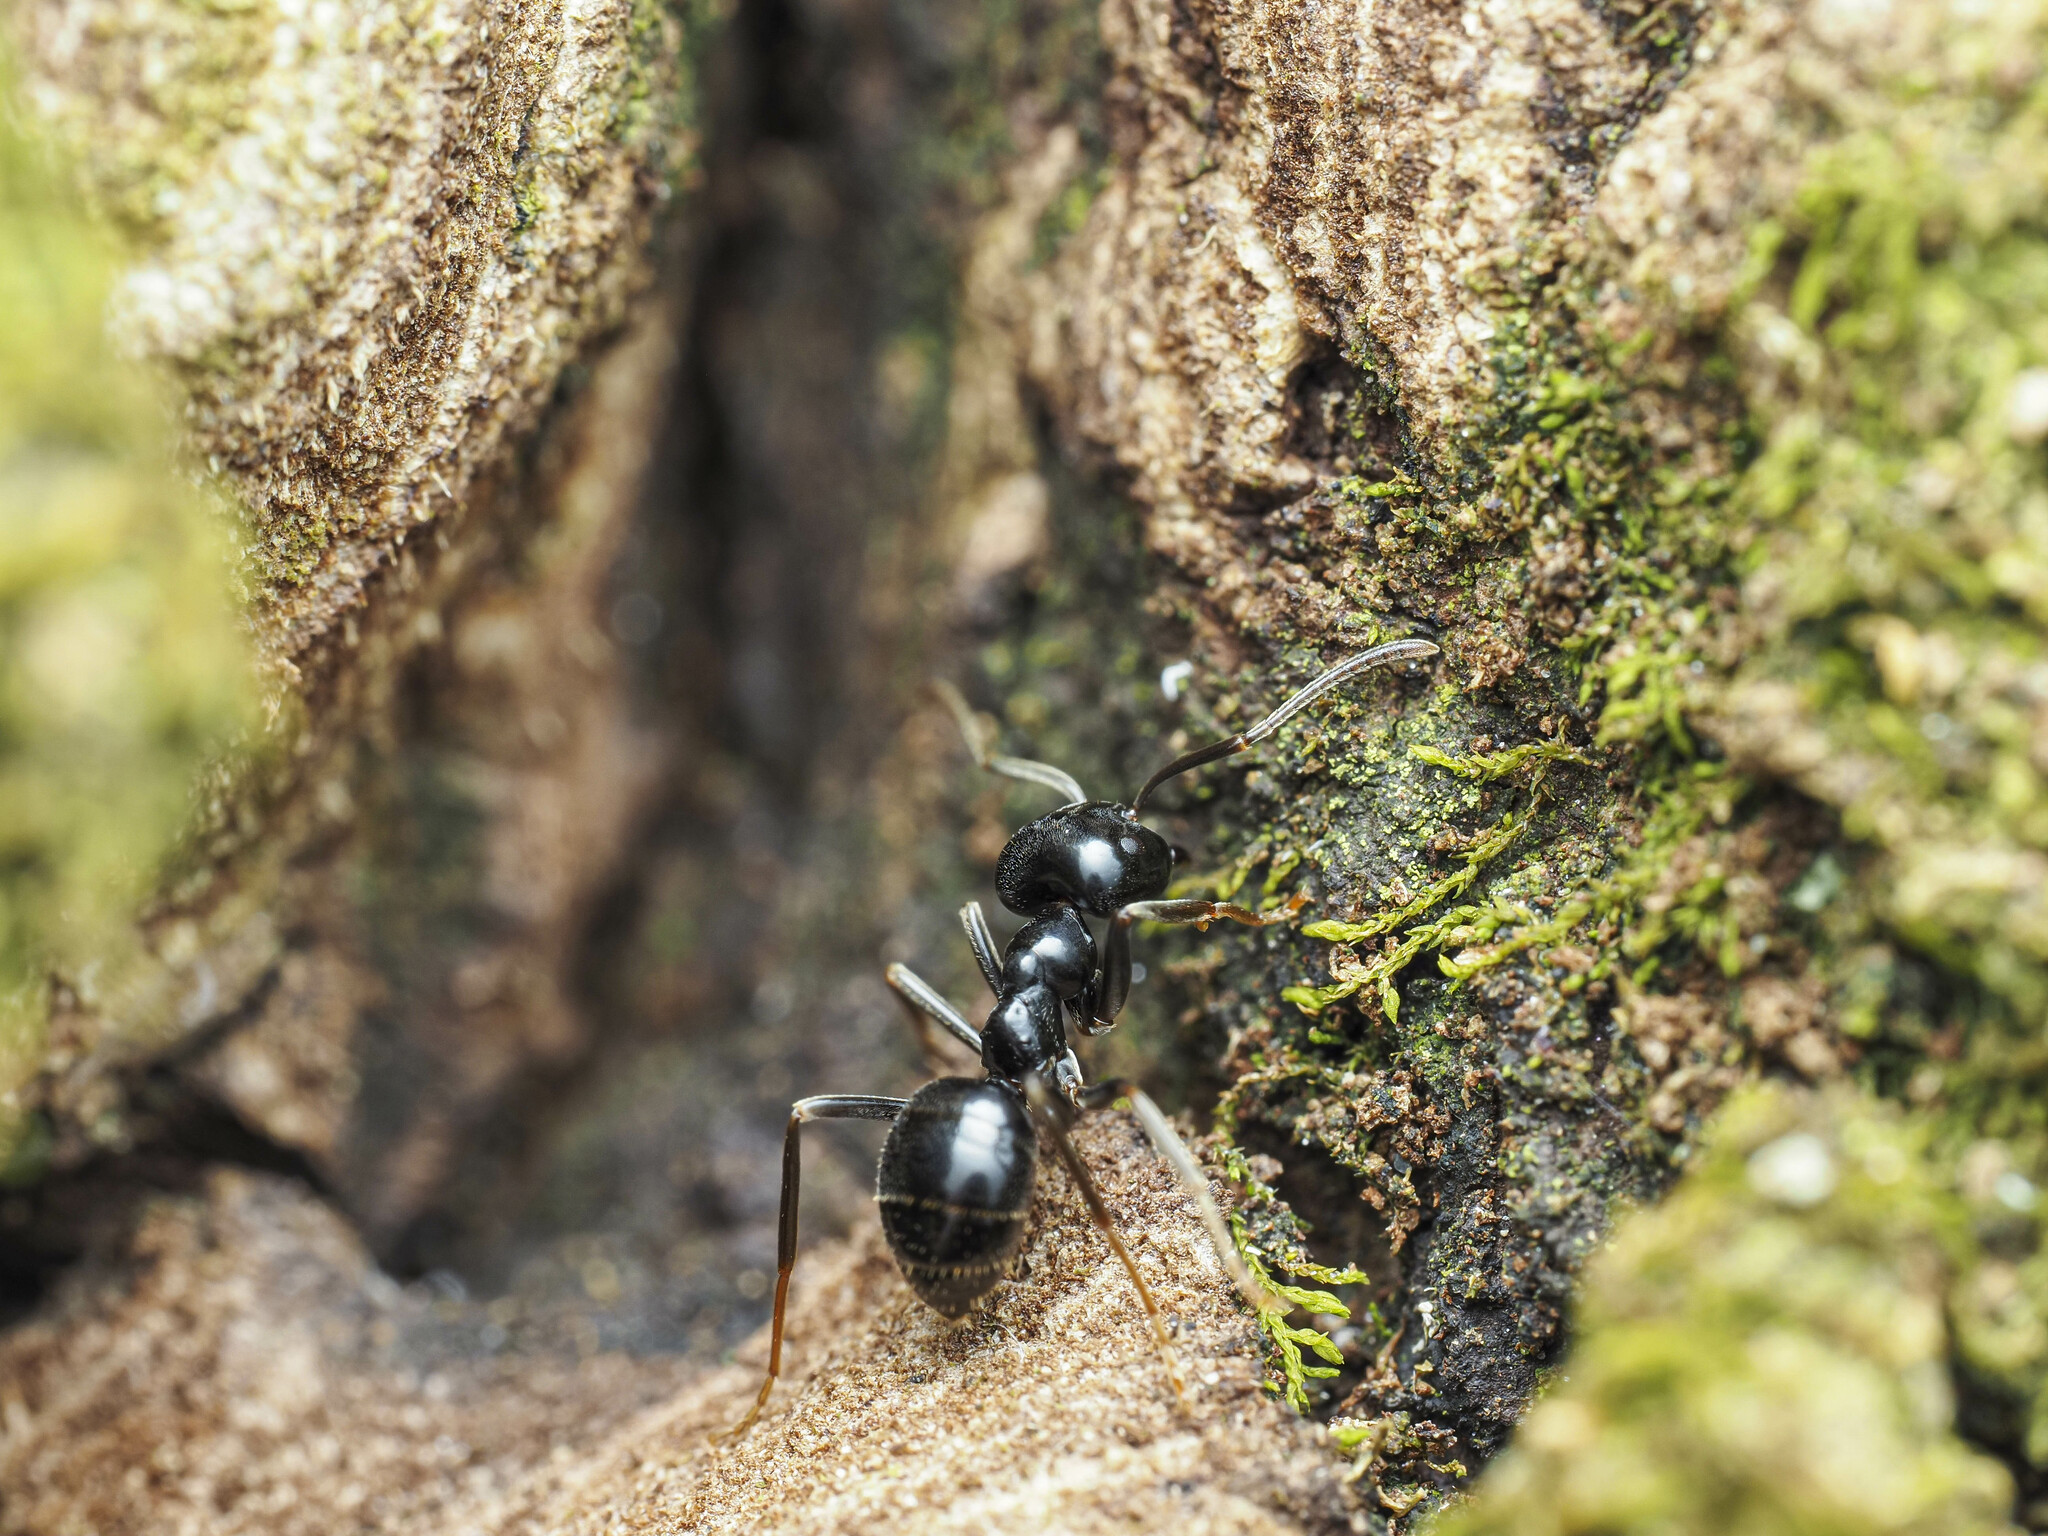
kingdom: Animalia
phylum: Arthropoda
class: Insecta
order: Hymenoptera
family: Formicidae
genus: Lasius
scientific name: Lasius fuliginosus
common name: Jet ant
